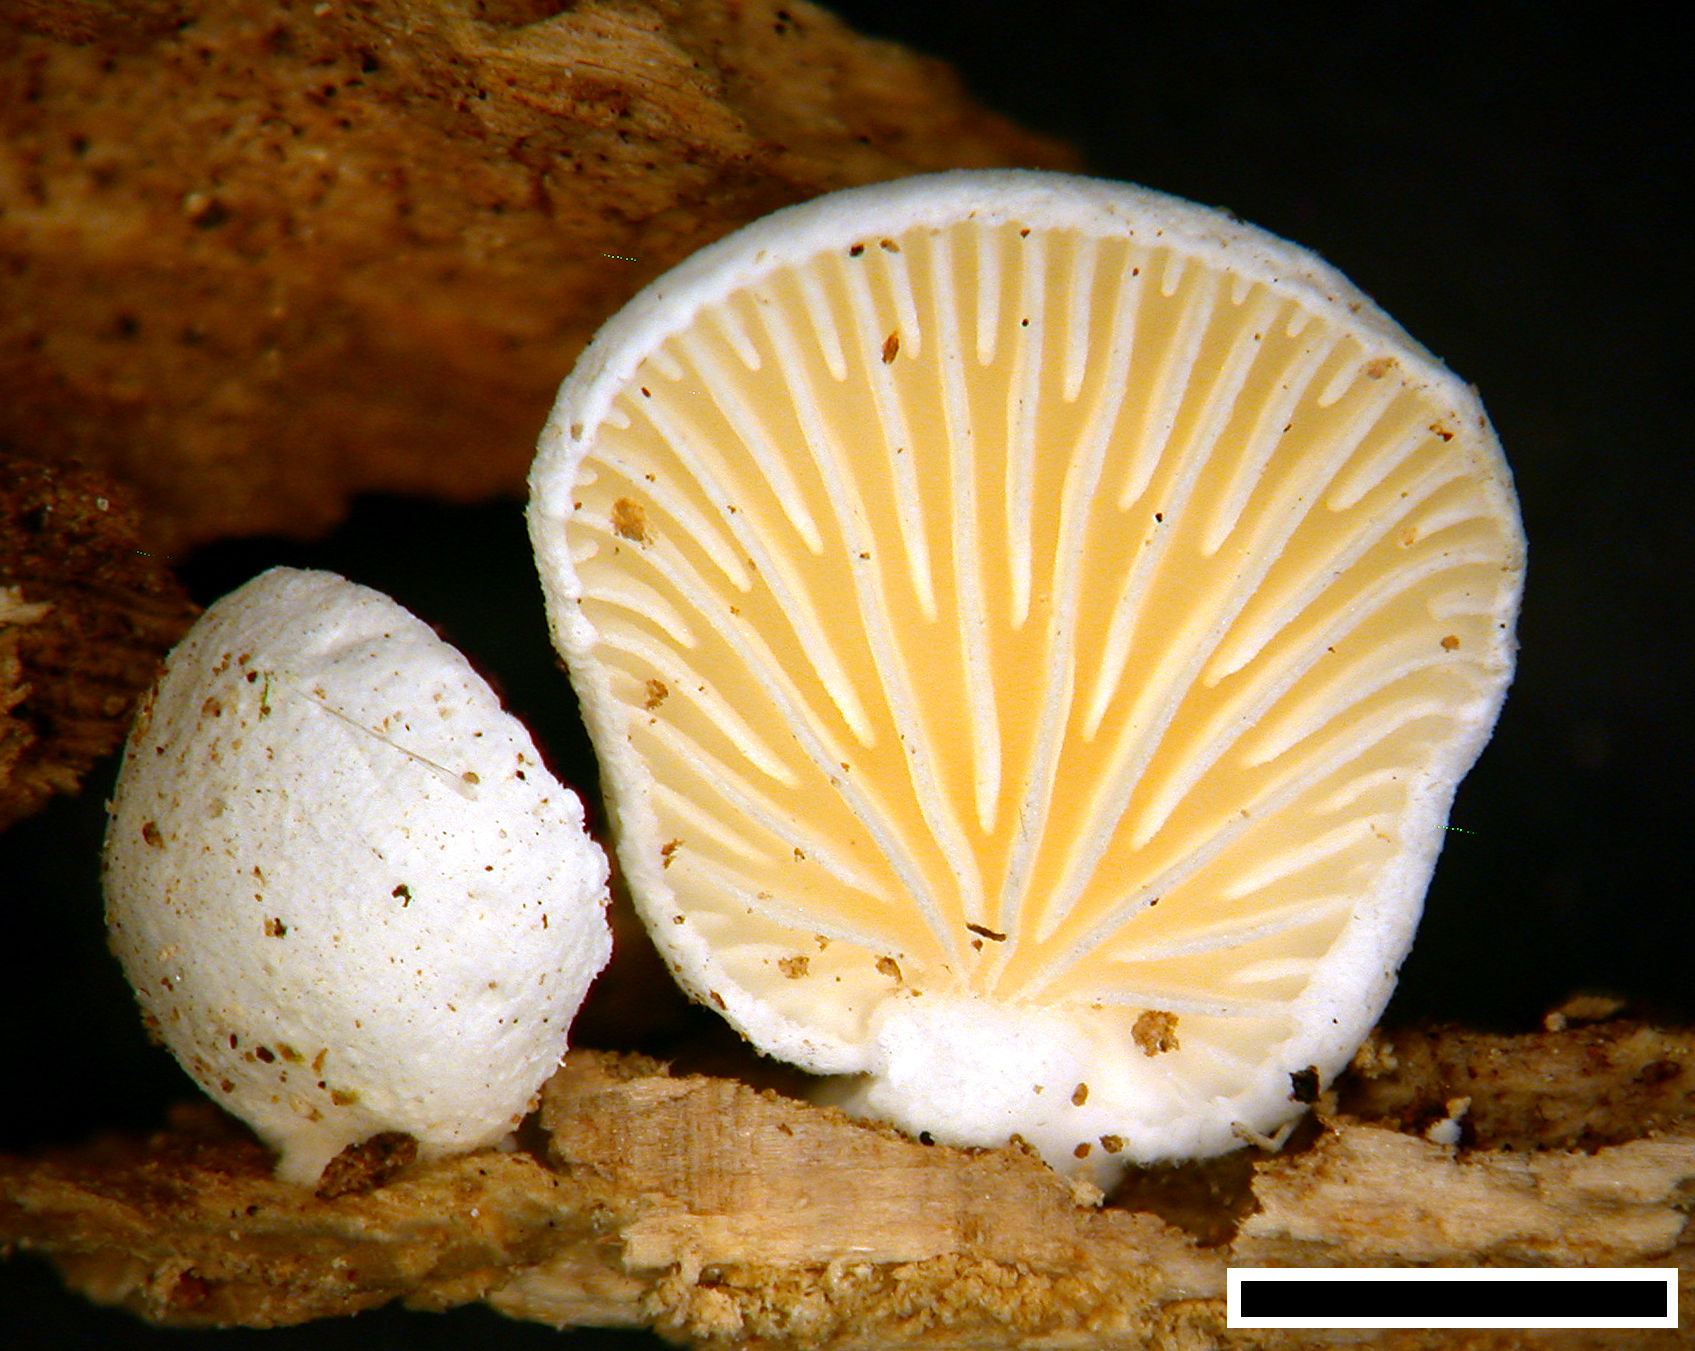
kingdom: Fungi
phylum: Basidiomycota
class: Agaricomycetes
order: Agaricales
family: Cyphellaceae
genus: Cheimonophyllum
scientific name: Cheimonophyllum
